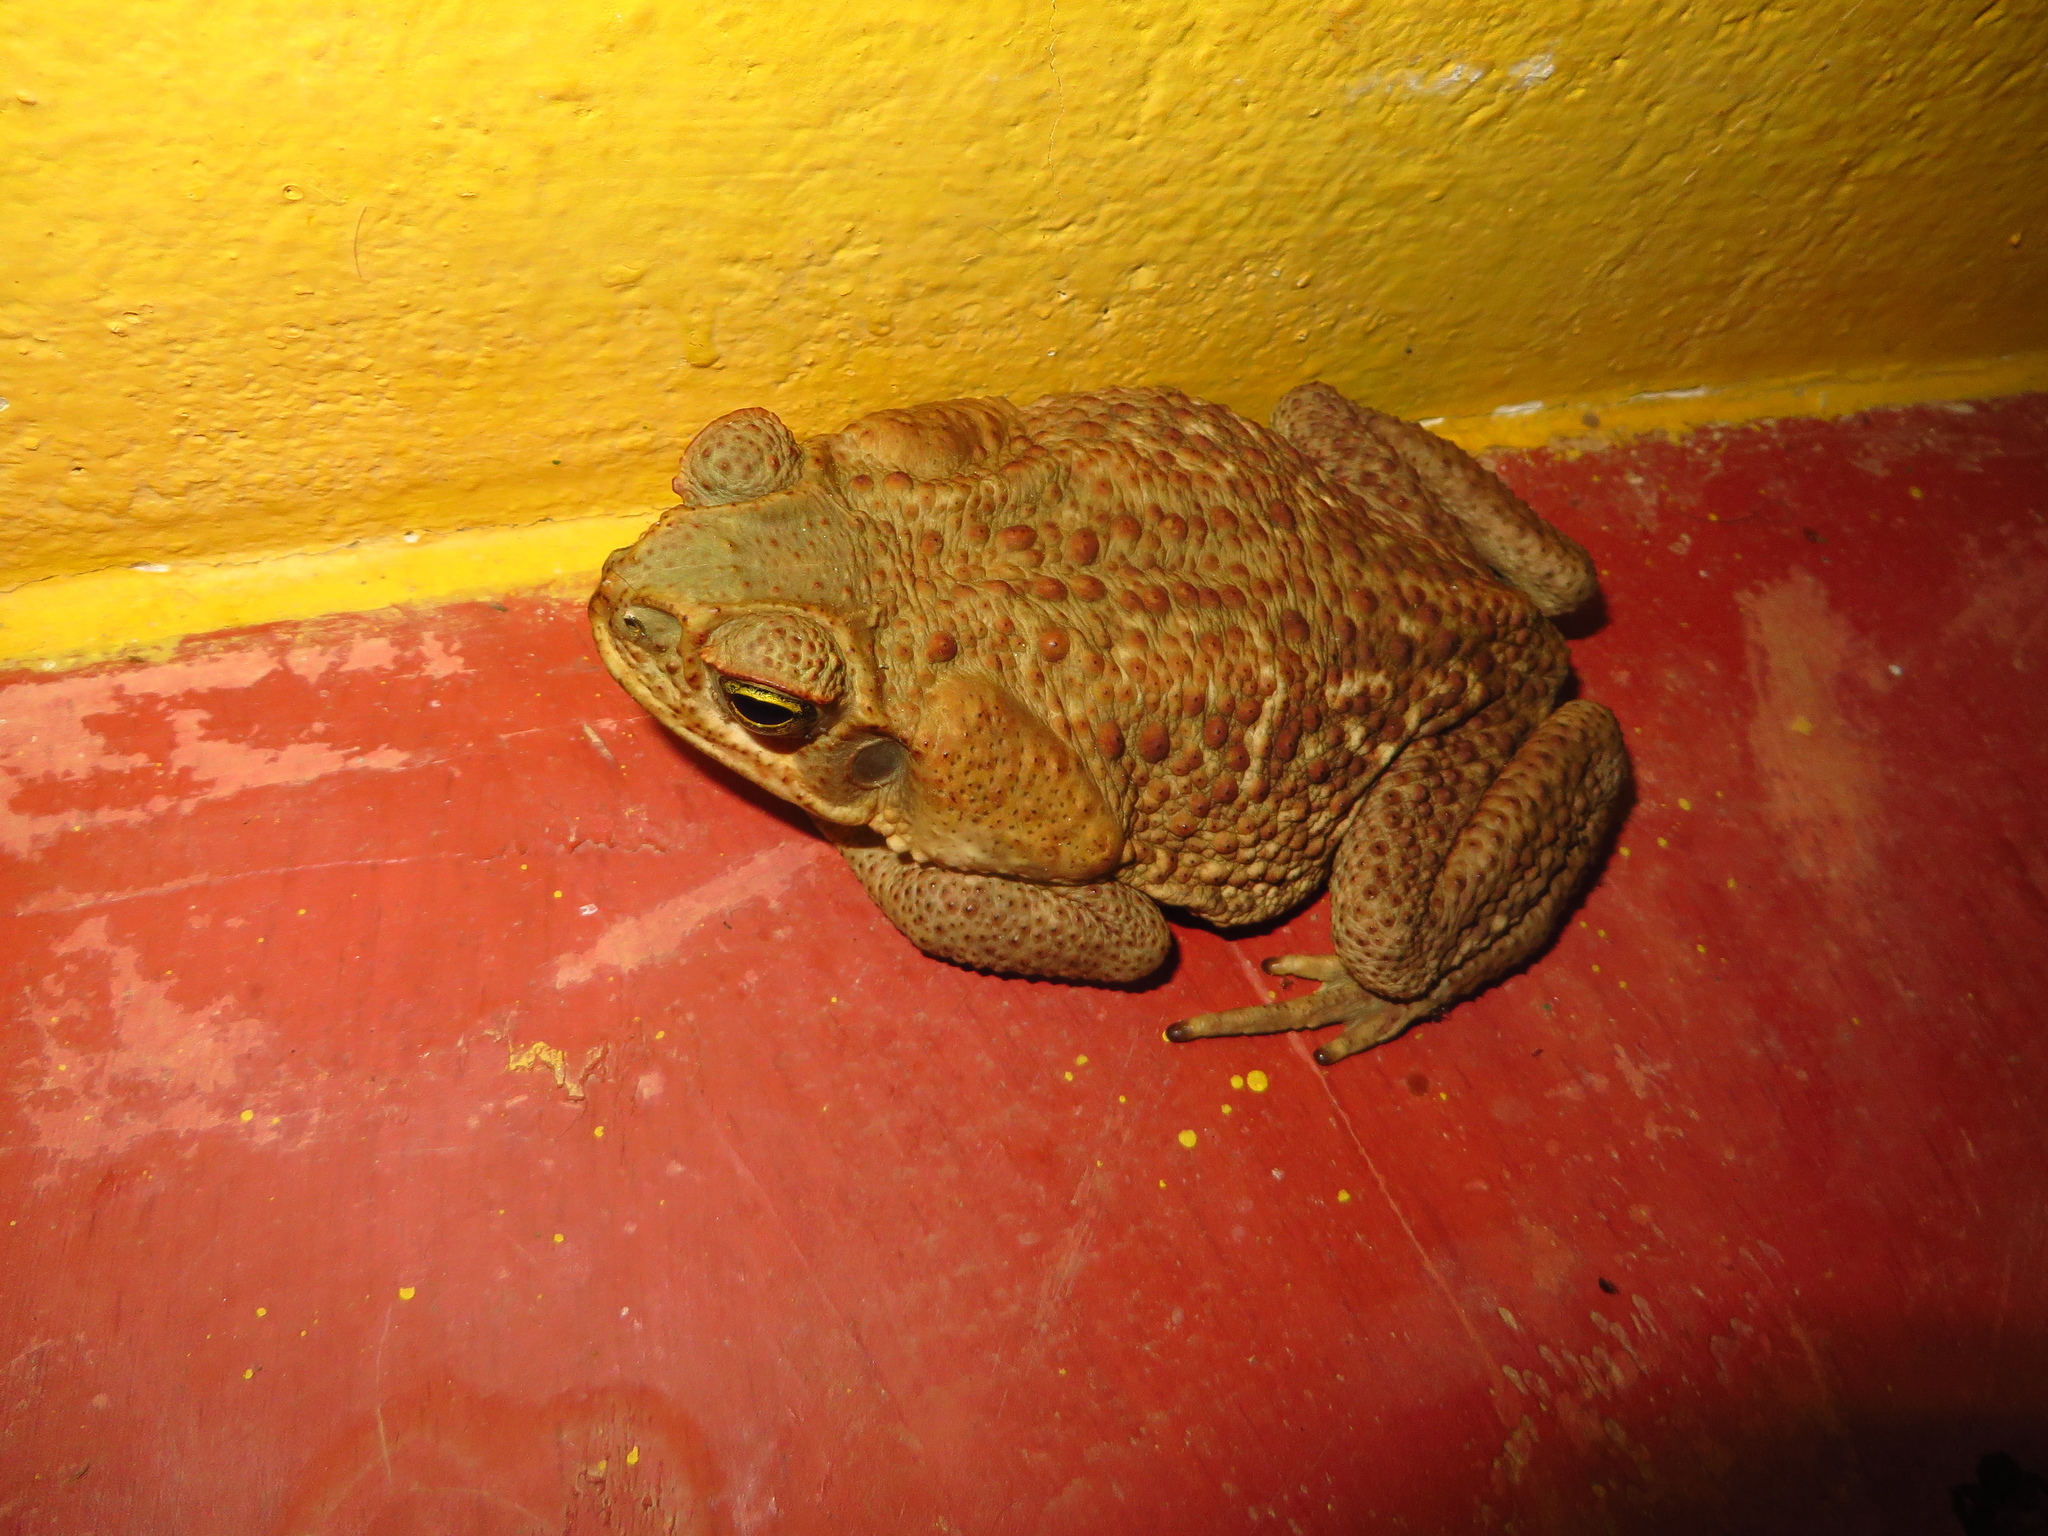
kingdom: Animalia
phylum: Chordata
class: Amphibia
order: Anura
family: Bufonidae
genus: Rhinella
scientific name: Rhinella horribilis
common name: Mesoamerican cane toad
